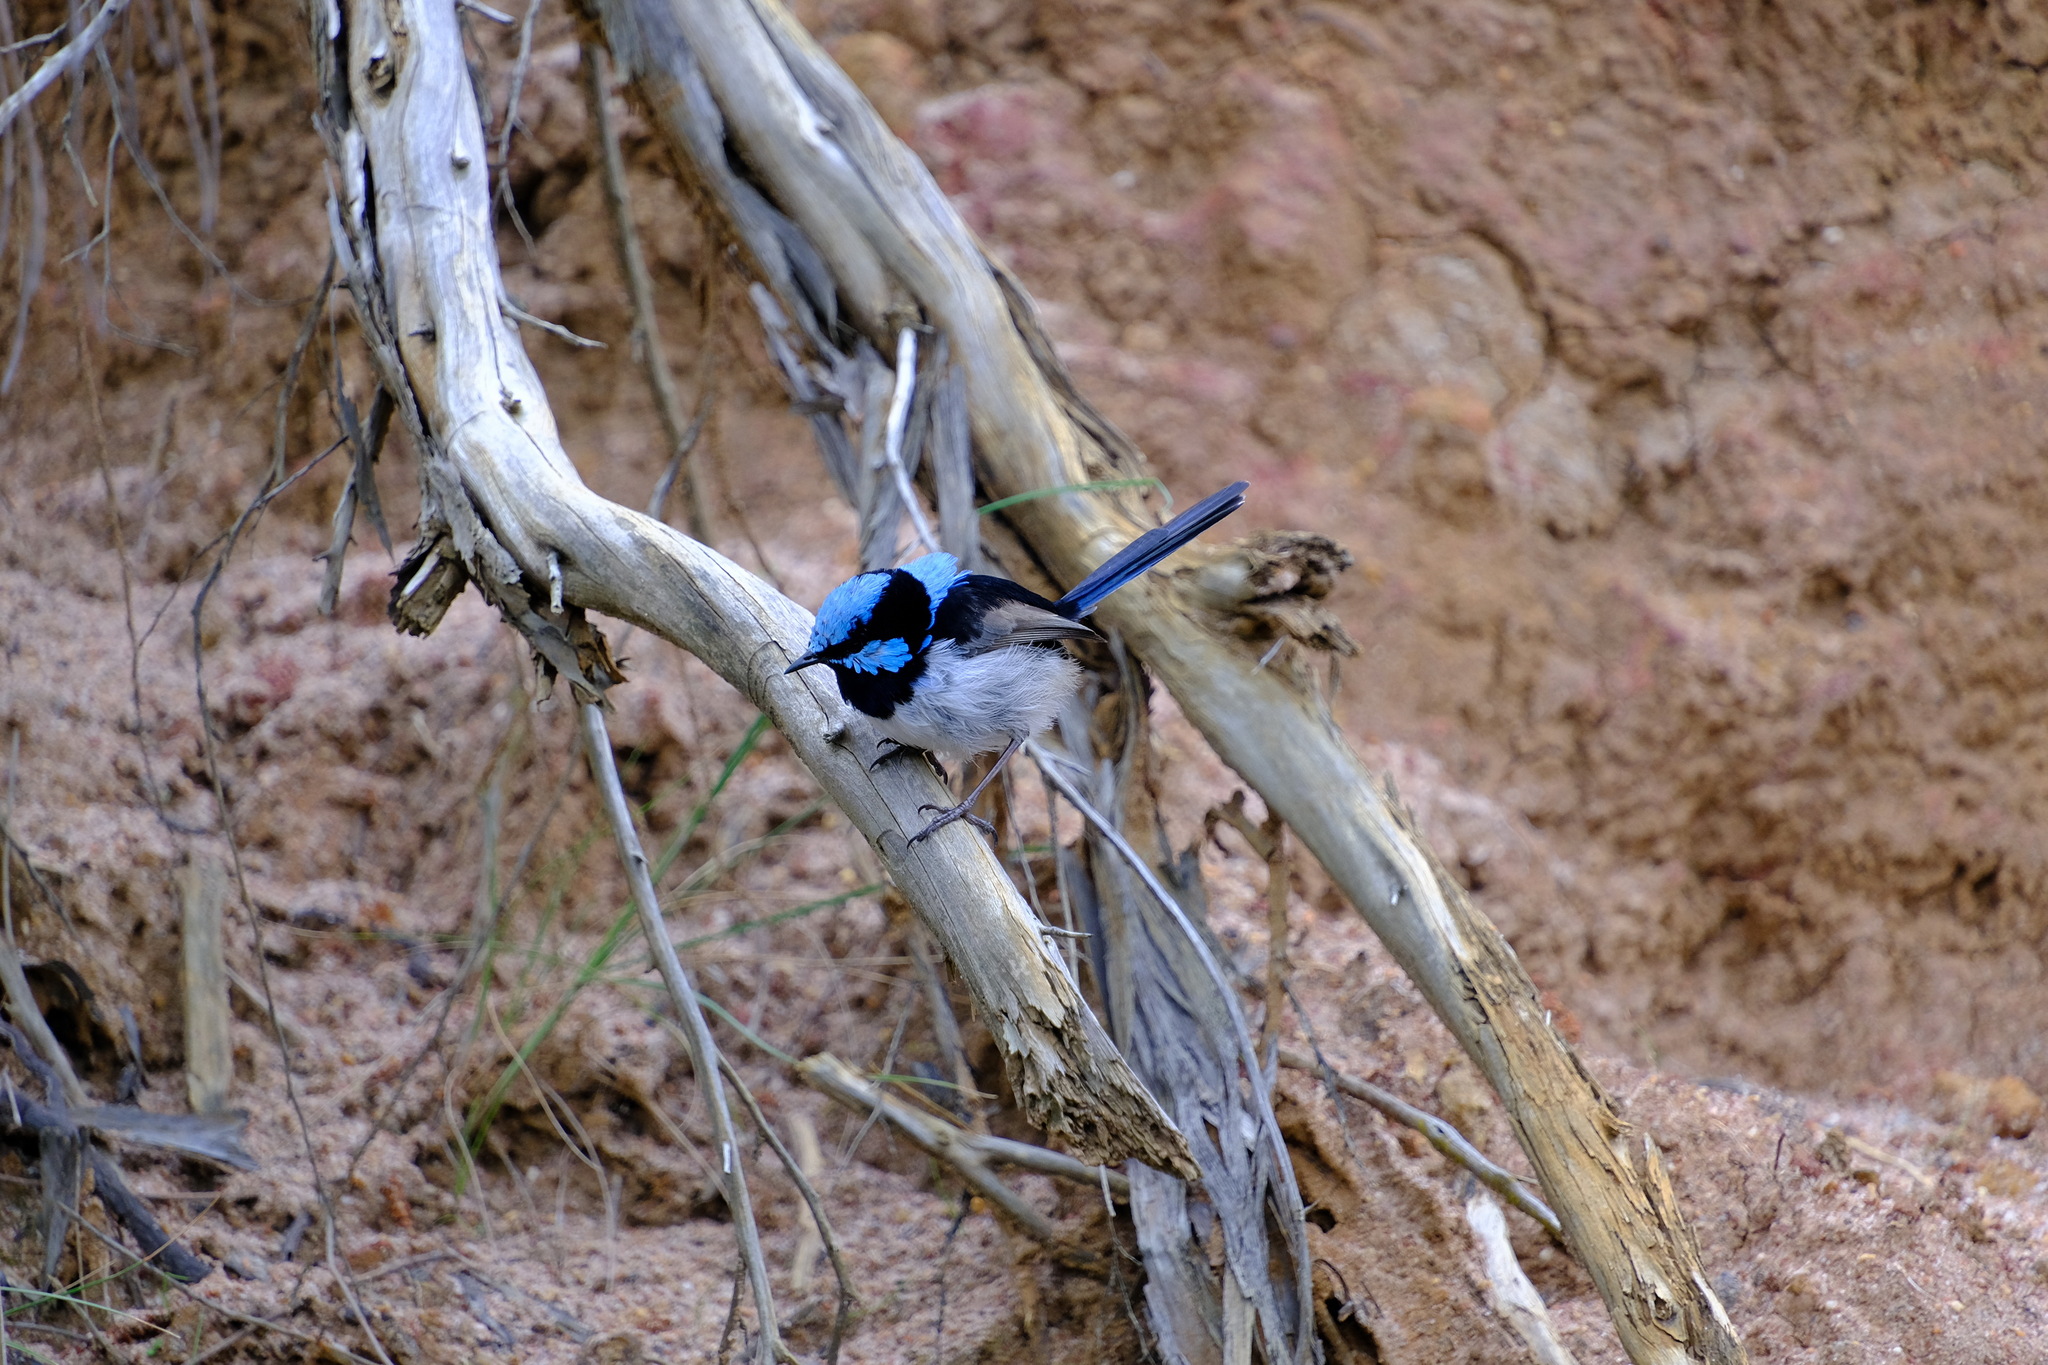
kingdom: Animalia
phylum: Chordata
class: Aves
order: Passeriformes
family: Maluridae
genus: Malurus
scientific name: Malurus cyaneus
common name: Superb fairywren
